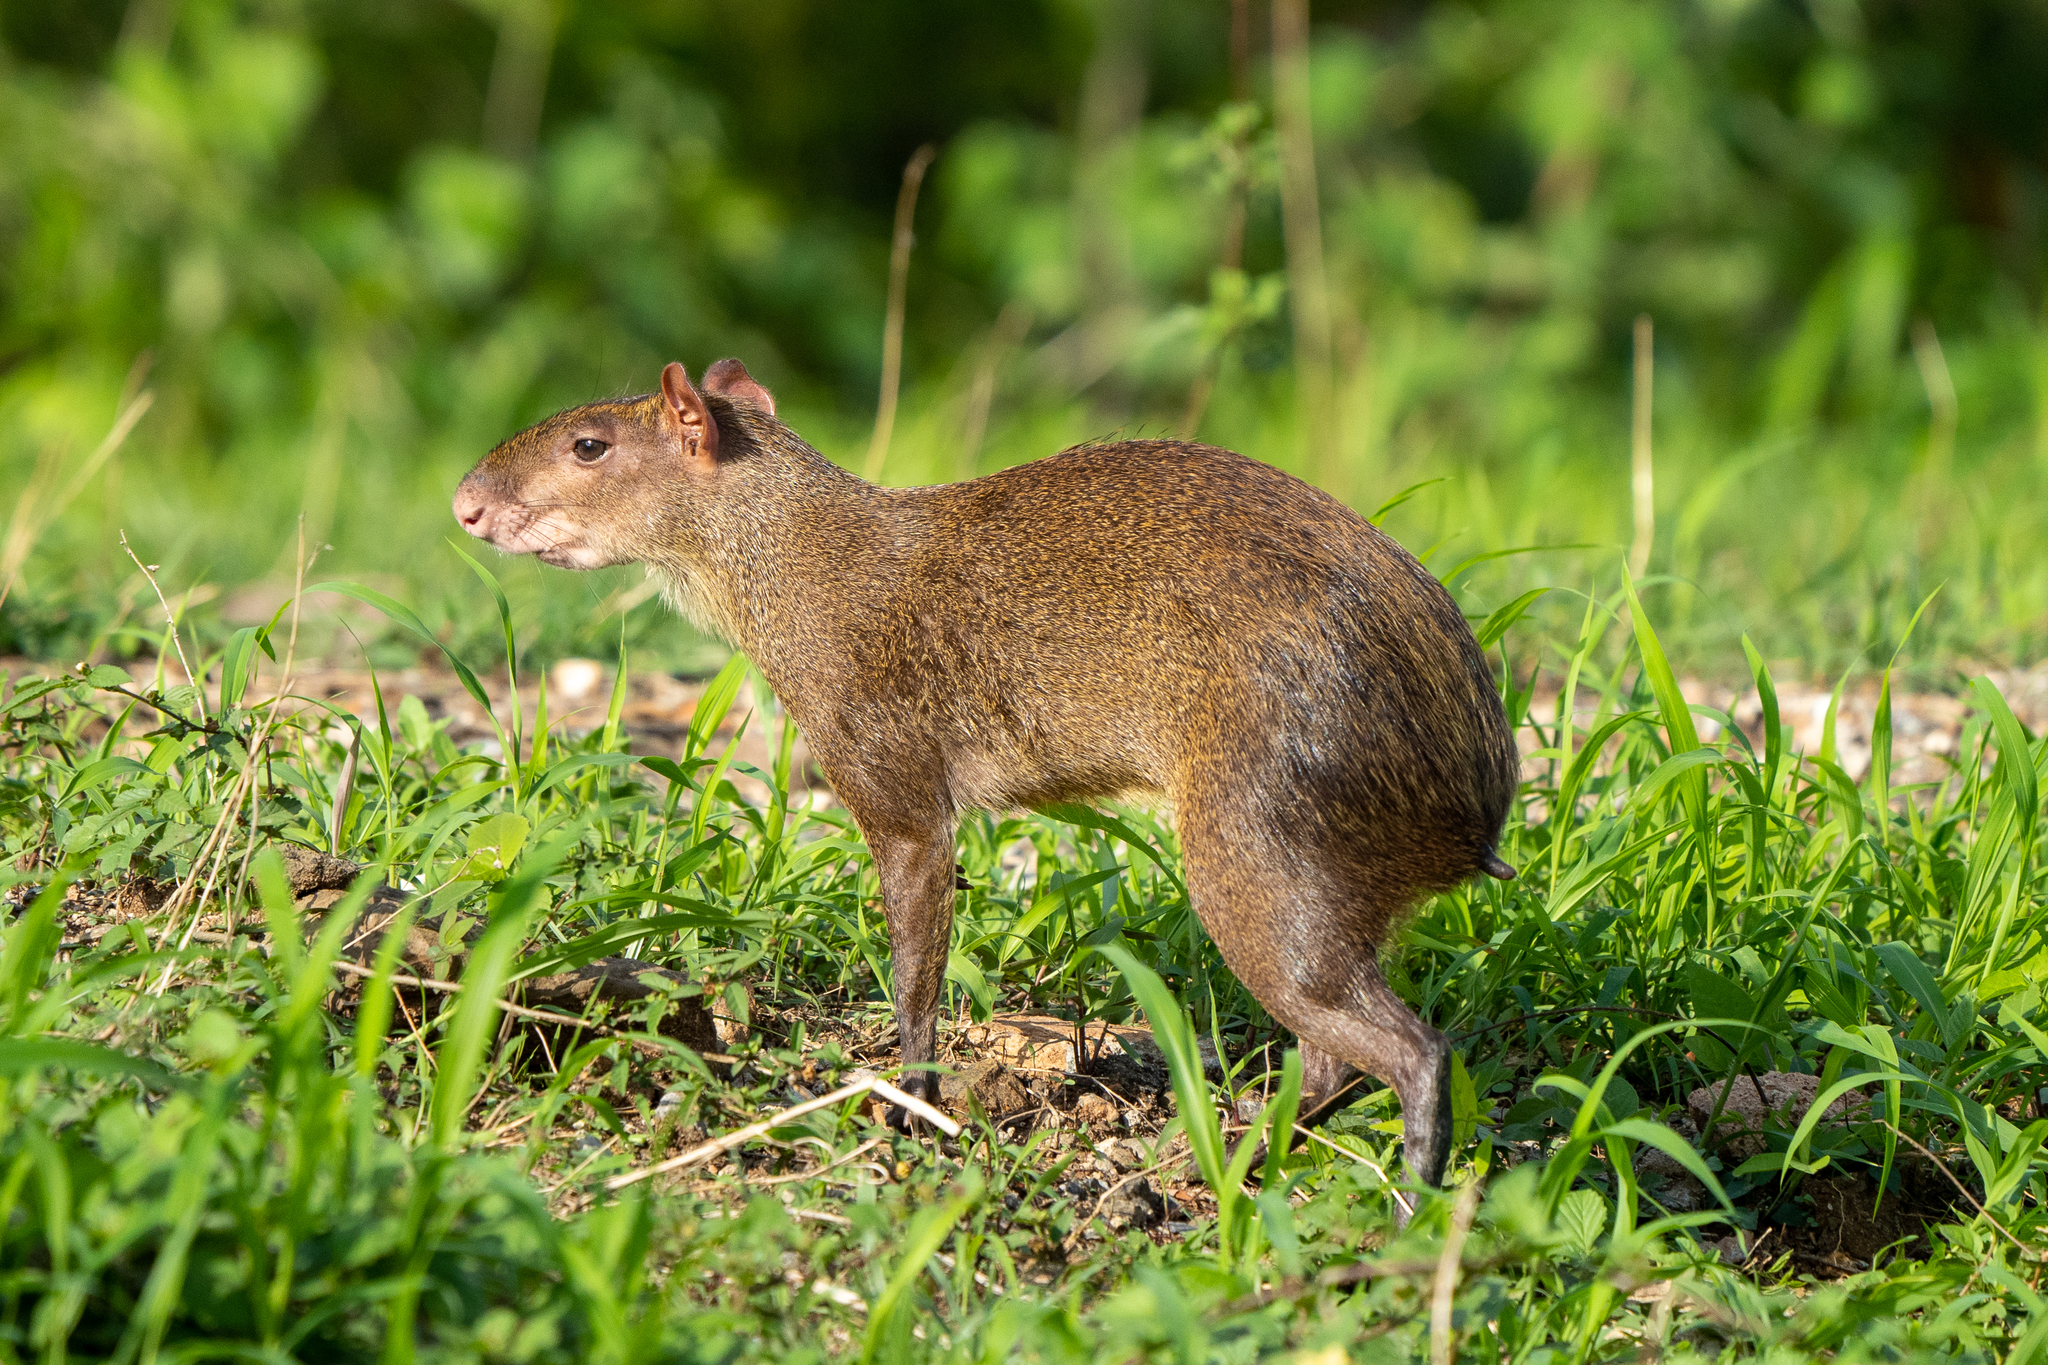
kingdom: Animalia
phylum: Chordata
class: Mammalia
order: Rodentia
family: Dasyproctidae
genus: Dasyprocta
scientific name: Dasyprocta punctata
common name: Central american agouti
